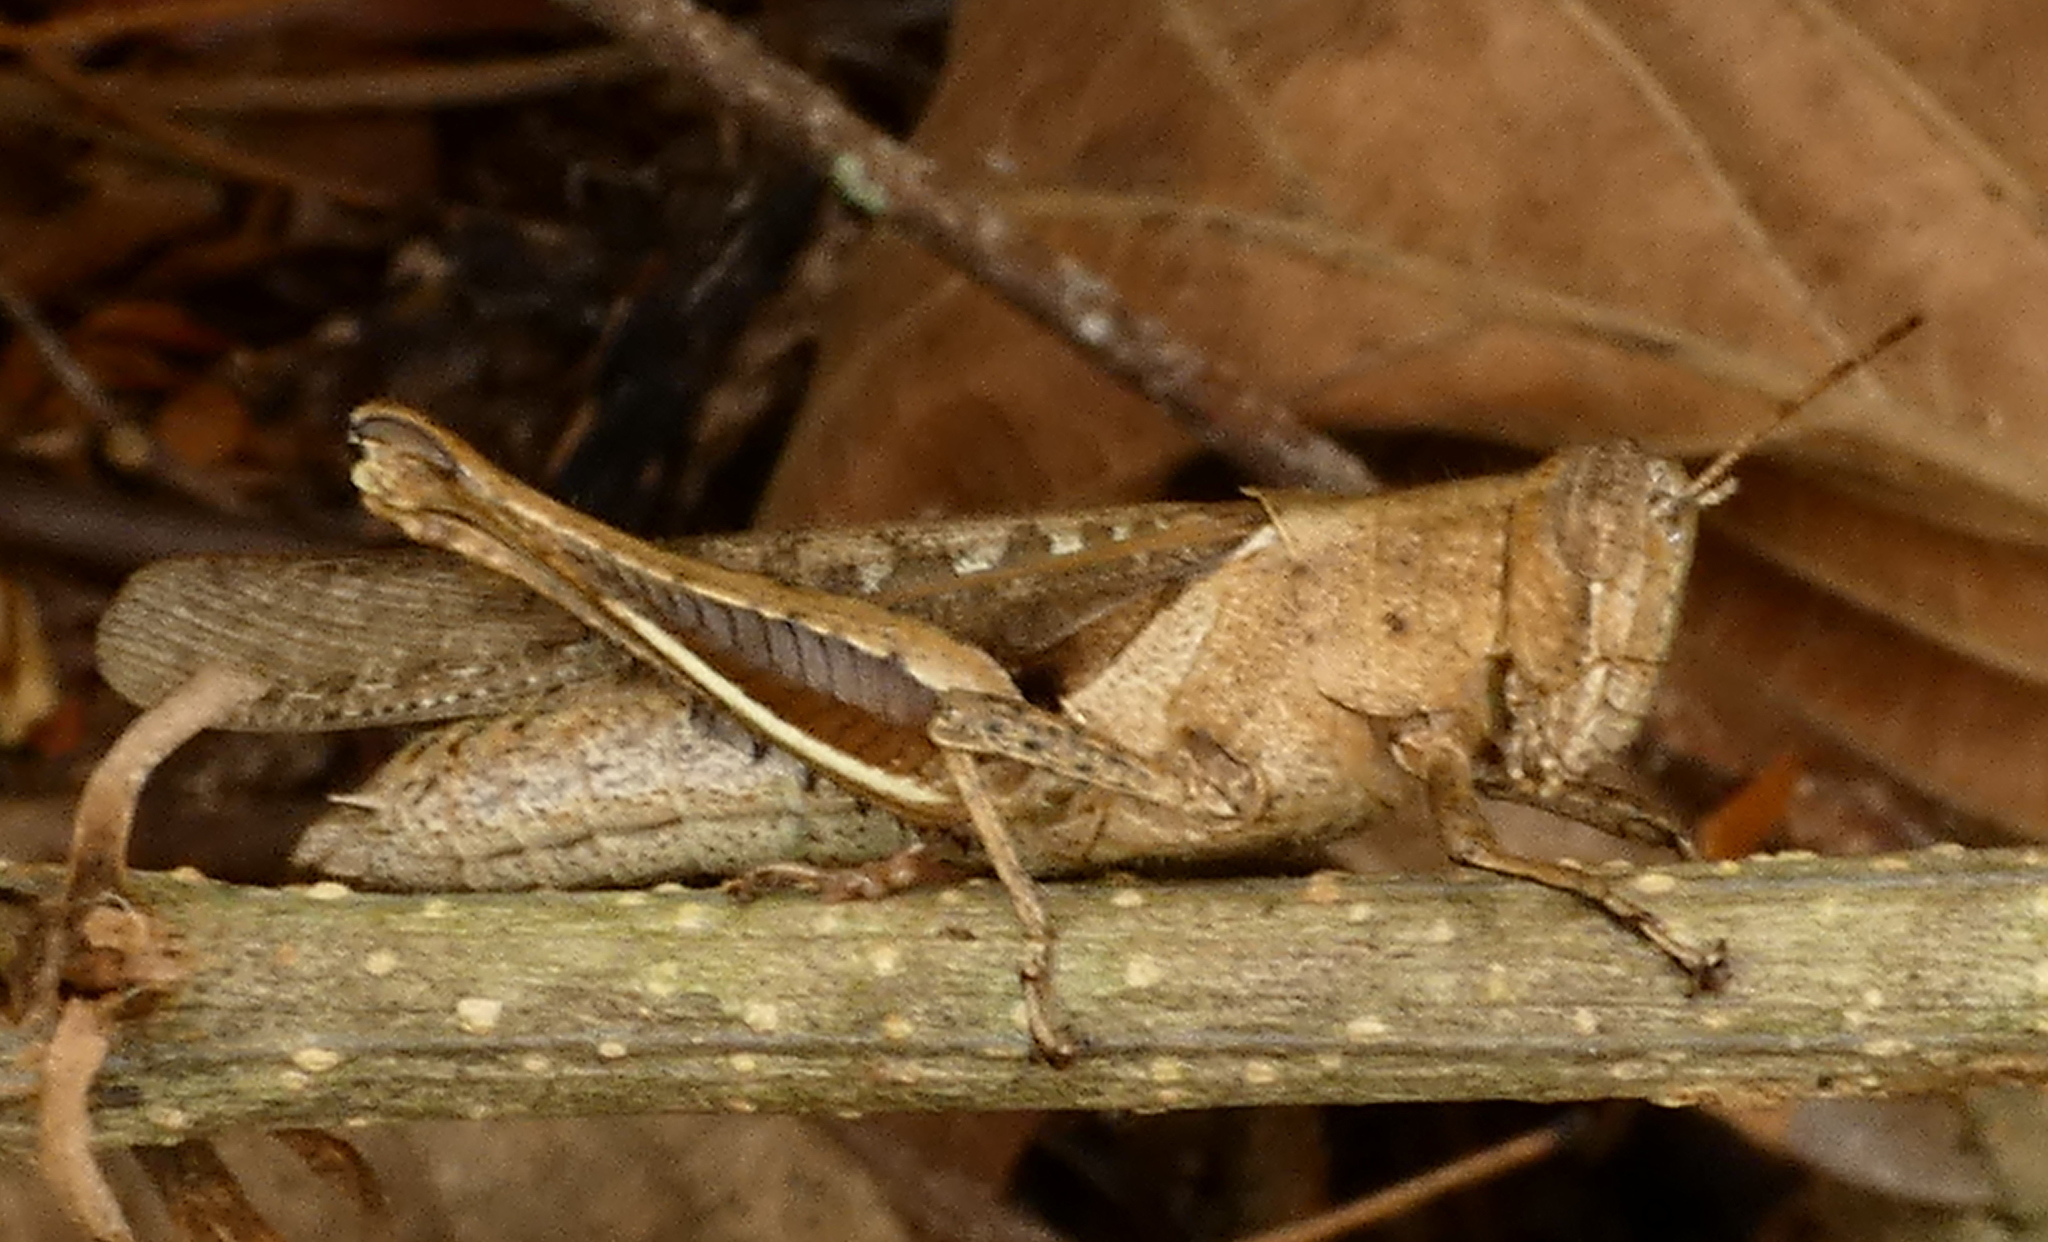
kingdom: Animalia
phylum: Arthropoda
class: Insecta
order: Orthoptera
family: Acrididae
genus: Abracris
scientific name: Abracris flavolineata
